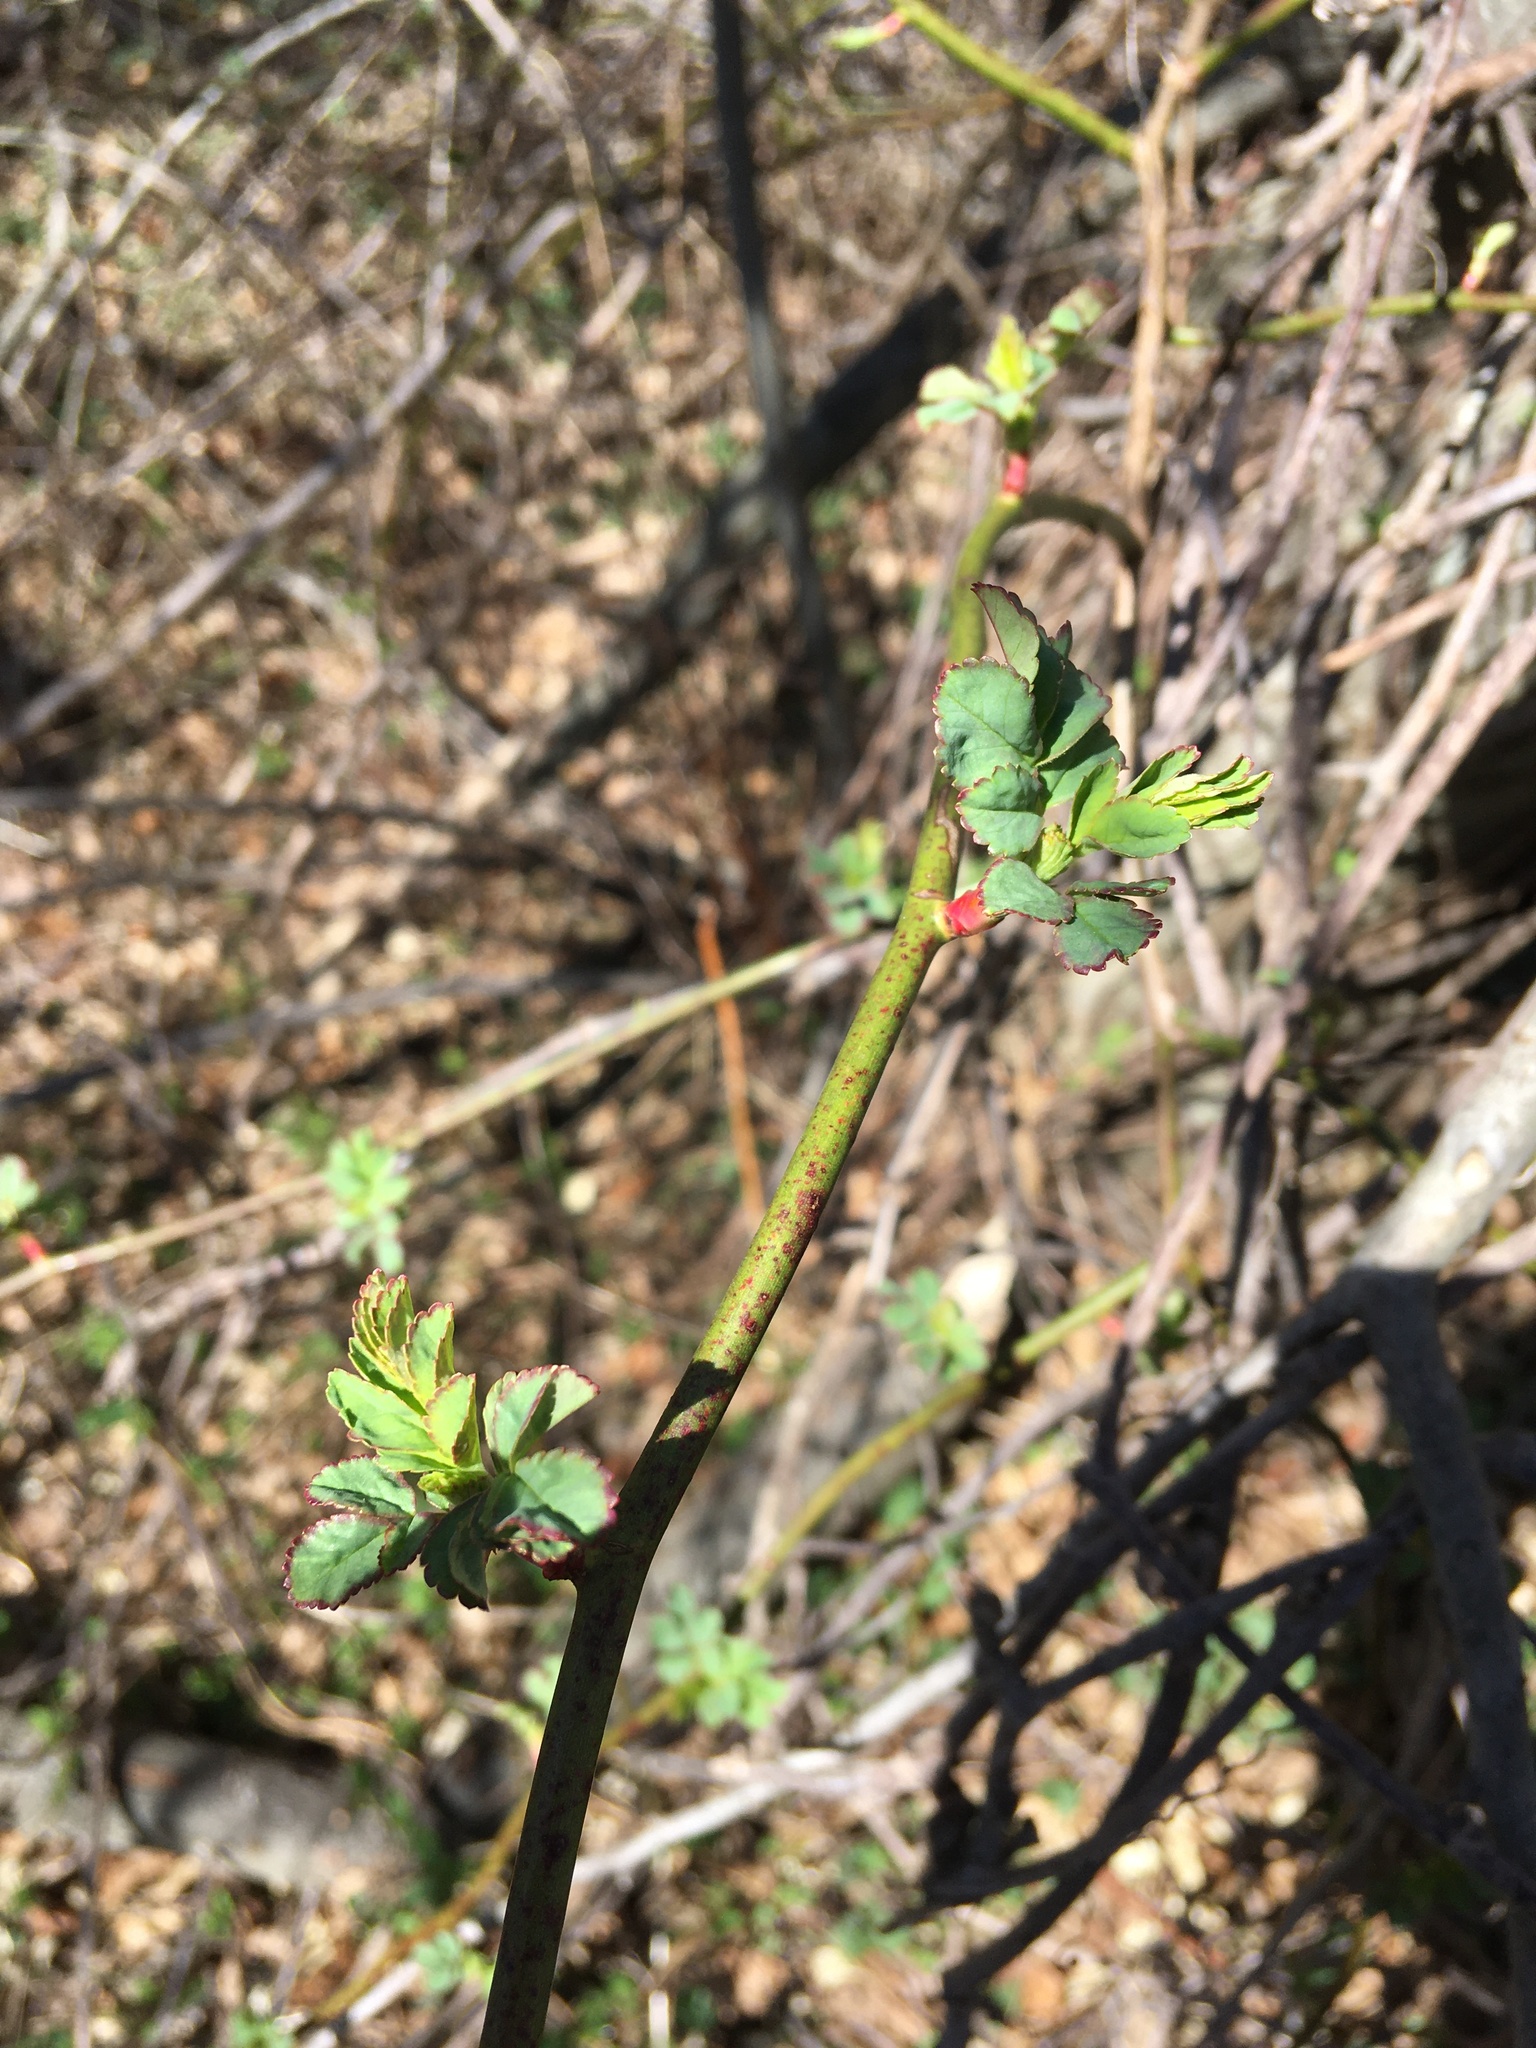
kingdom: Plantae
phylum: Tracheophyta
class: Magnoliopsida
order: Rosales
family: Rosaceae
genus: Rosa
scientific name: Rosa multiflora
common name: Multiflora rose
